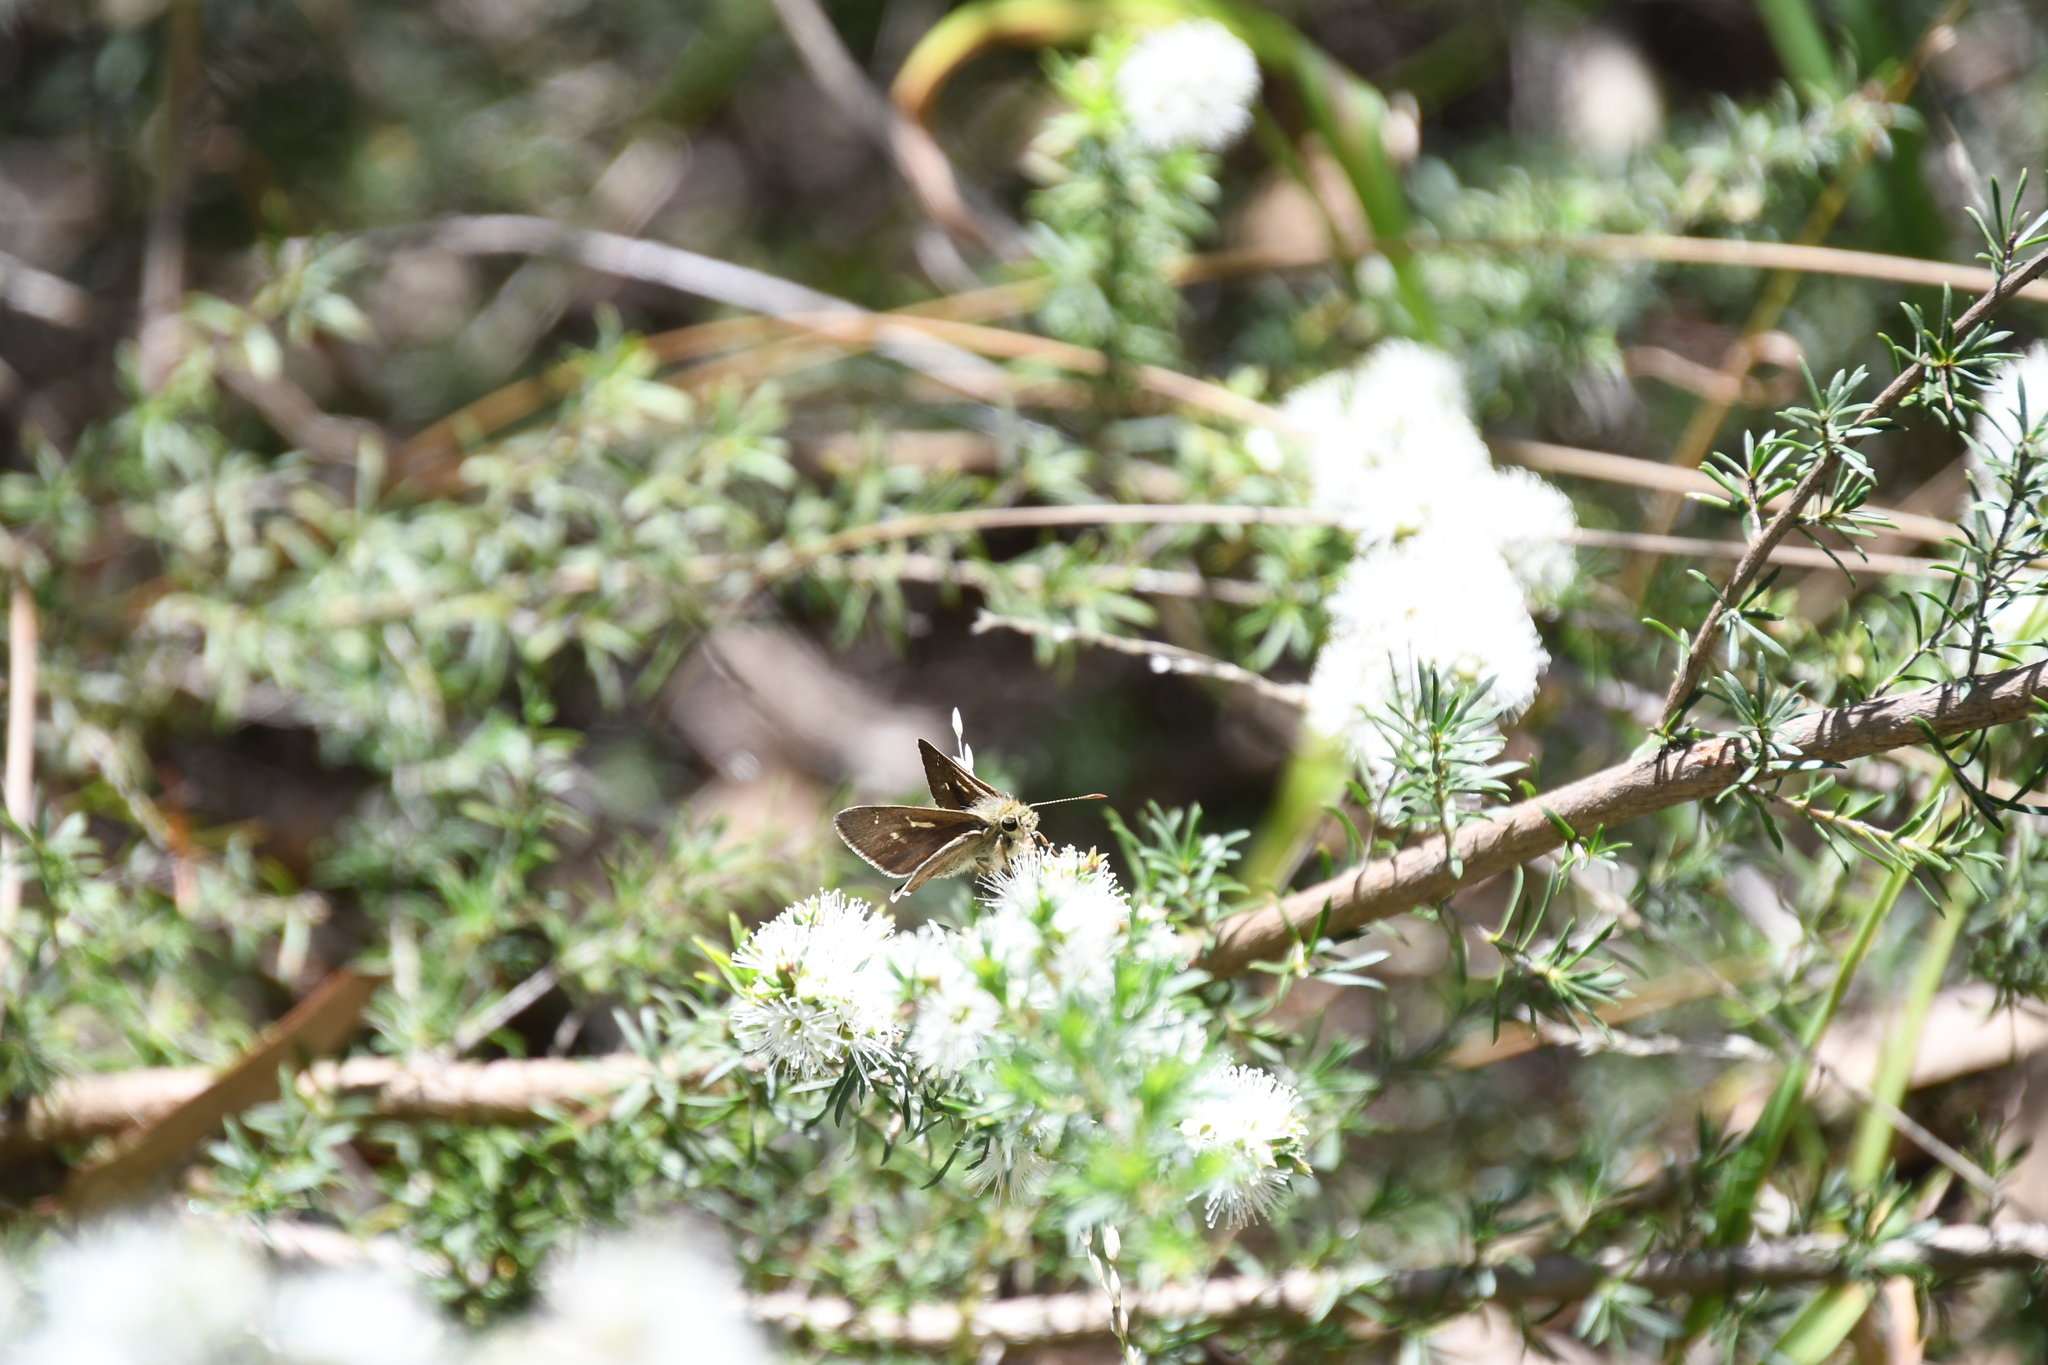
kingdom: Animalia
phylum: Arthropoda
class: Insecta
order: Lepidoptera
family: Hesperiidae
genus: Toxidia
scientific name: Toxidia
